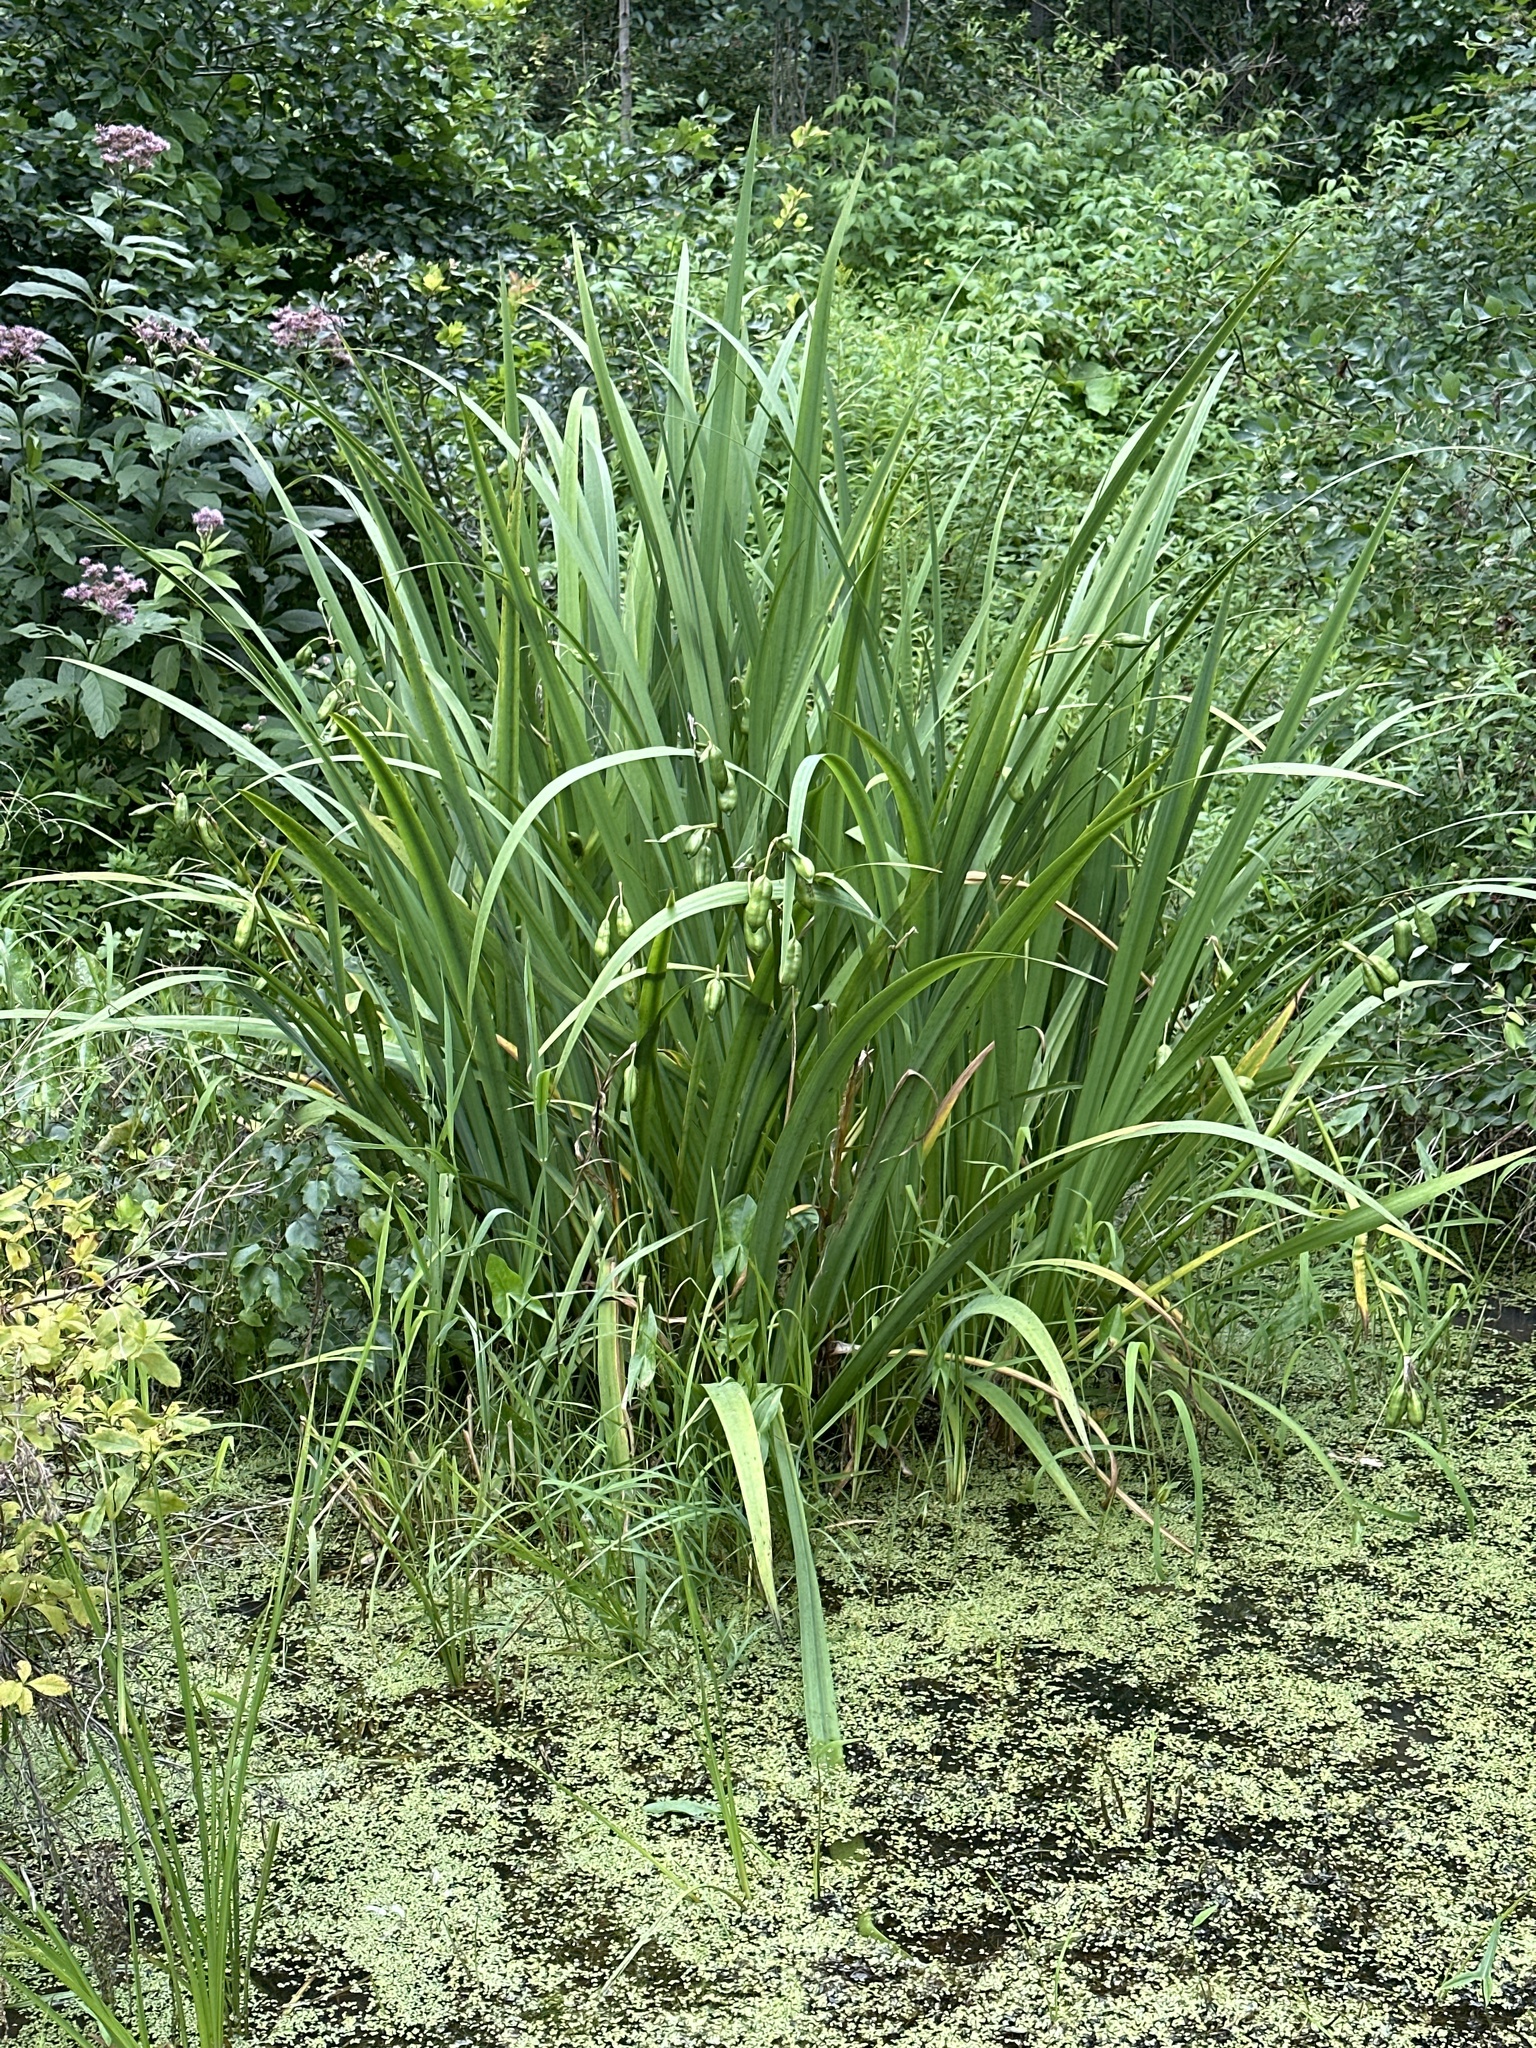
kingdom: Plantae
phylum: Tracheophyta
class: Liliopsida
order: Asparagales
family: Iridaceae
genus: Iris
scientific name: Iris pseudacorus
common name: Yellow flag
